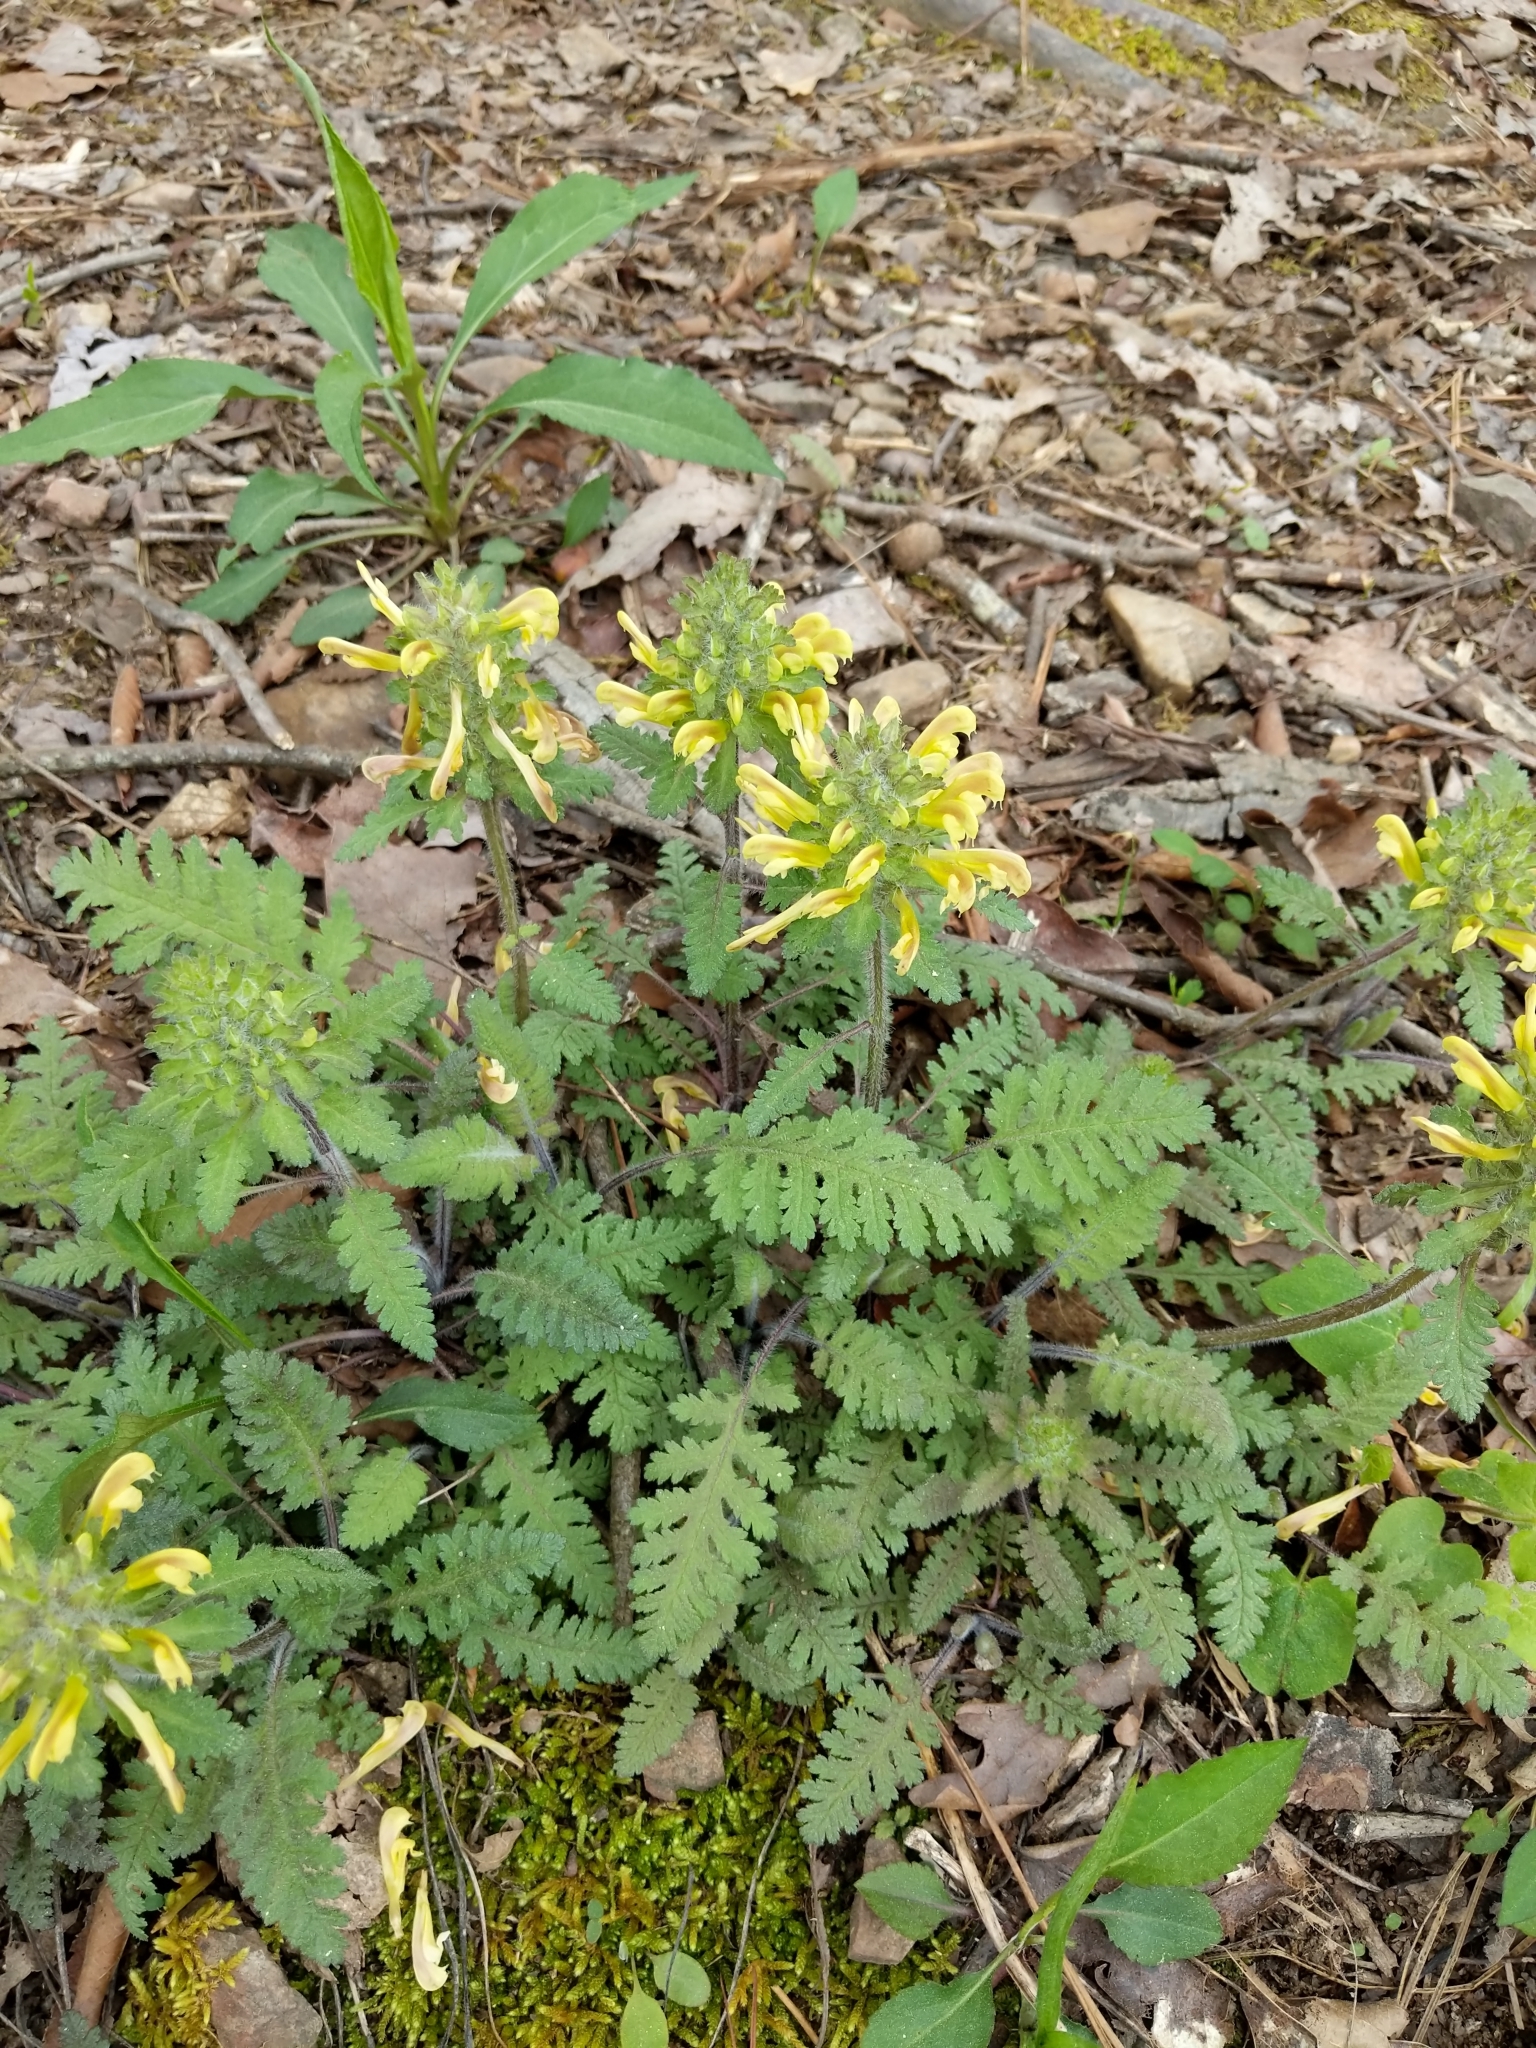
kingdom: Plantae
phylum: Tracheophyta
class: Magnoliopsida
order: Lamiales
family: Orobanchaceae
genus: Pedicularis
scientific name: Pedicularis canadensis
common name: Early lousewort
